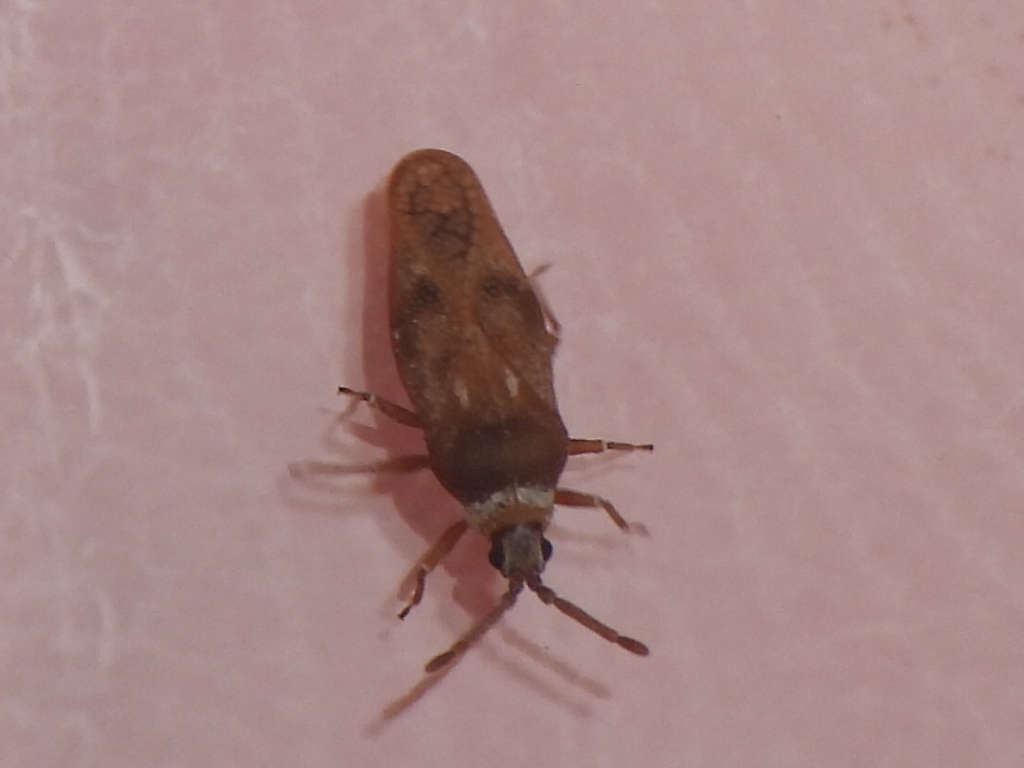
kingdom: Animalia
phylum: Arthropoda
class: Insecta
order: Hemiptera
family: Tingidae
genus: Leptoypha
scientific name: Leptoypha mutica
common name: Fringetree lace bug
